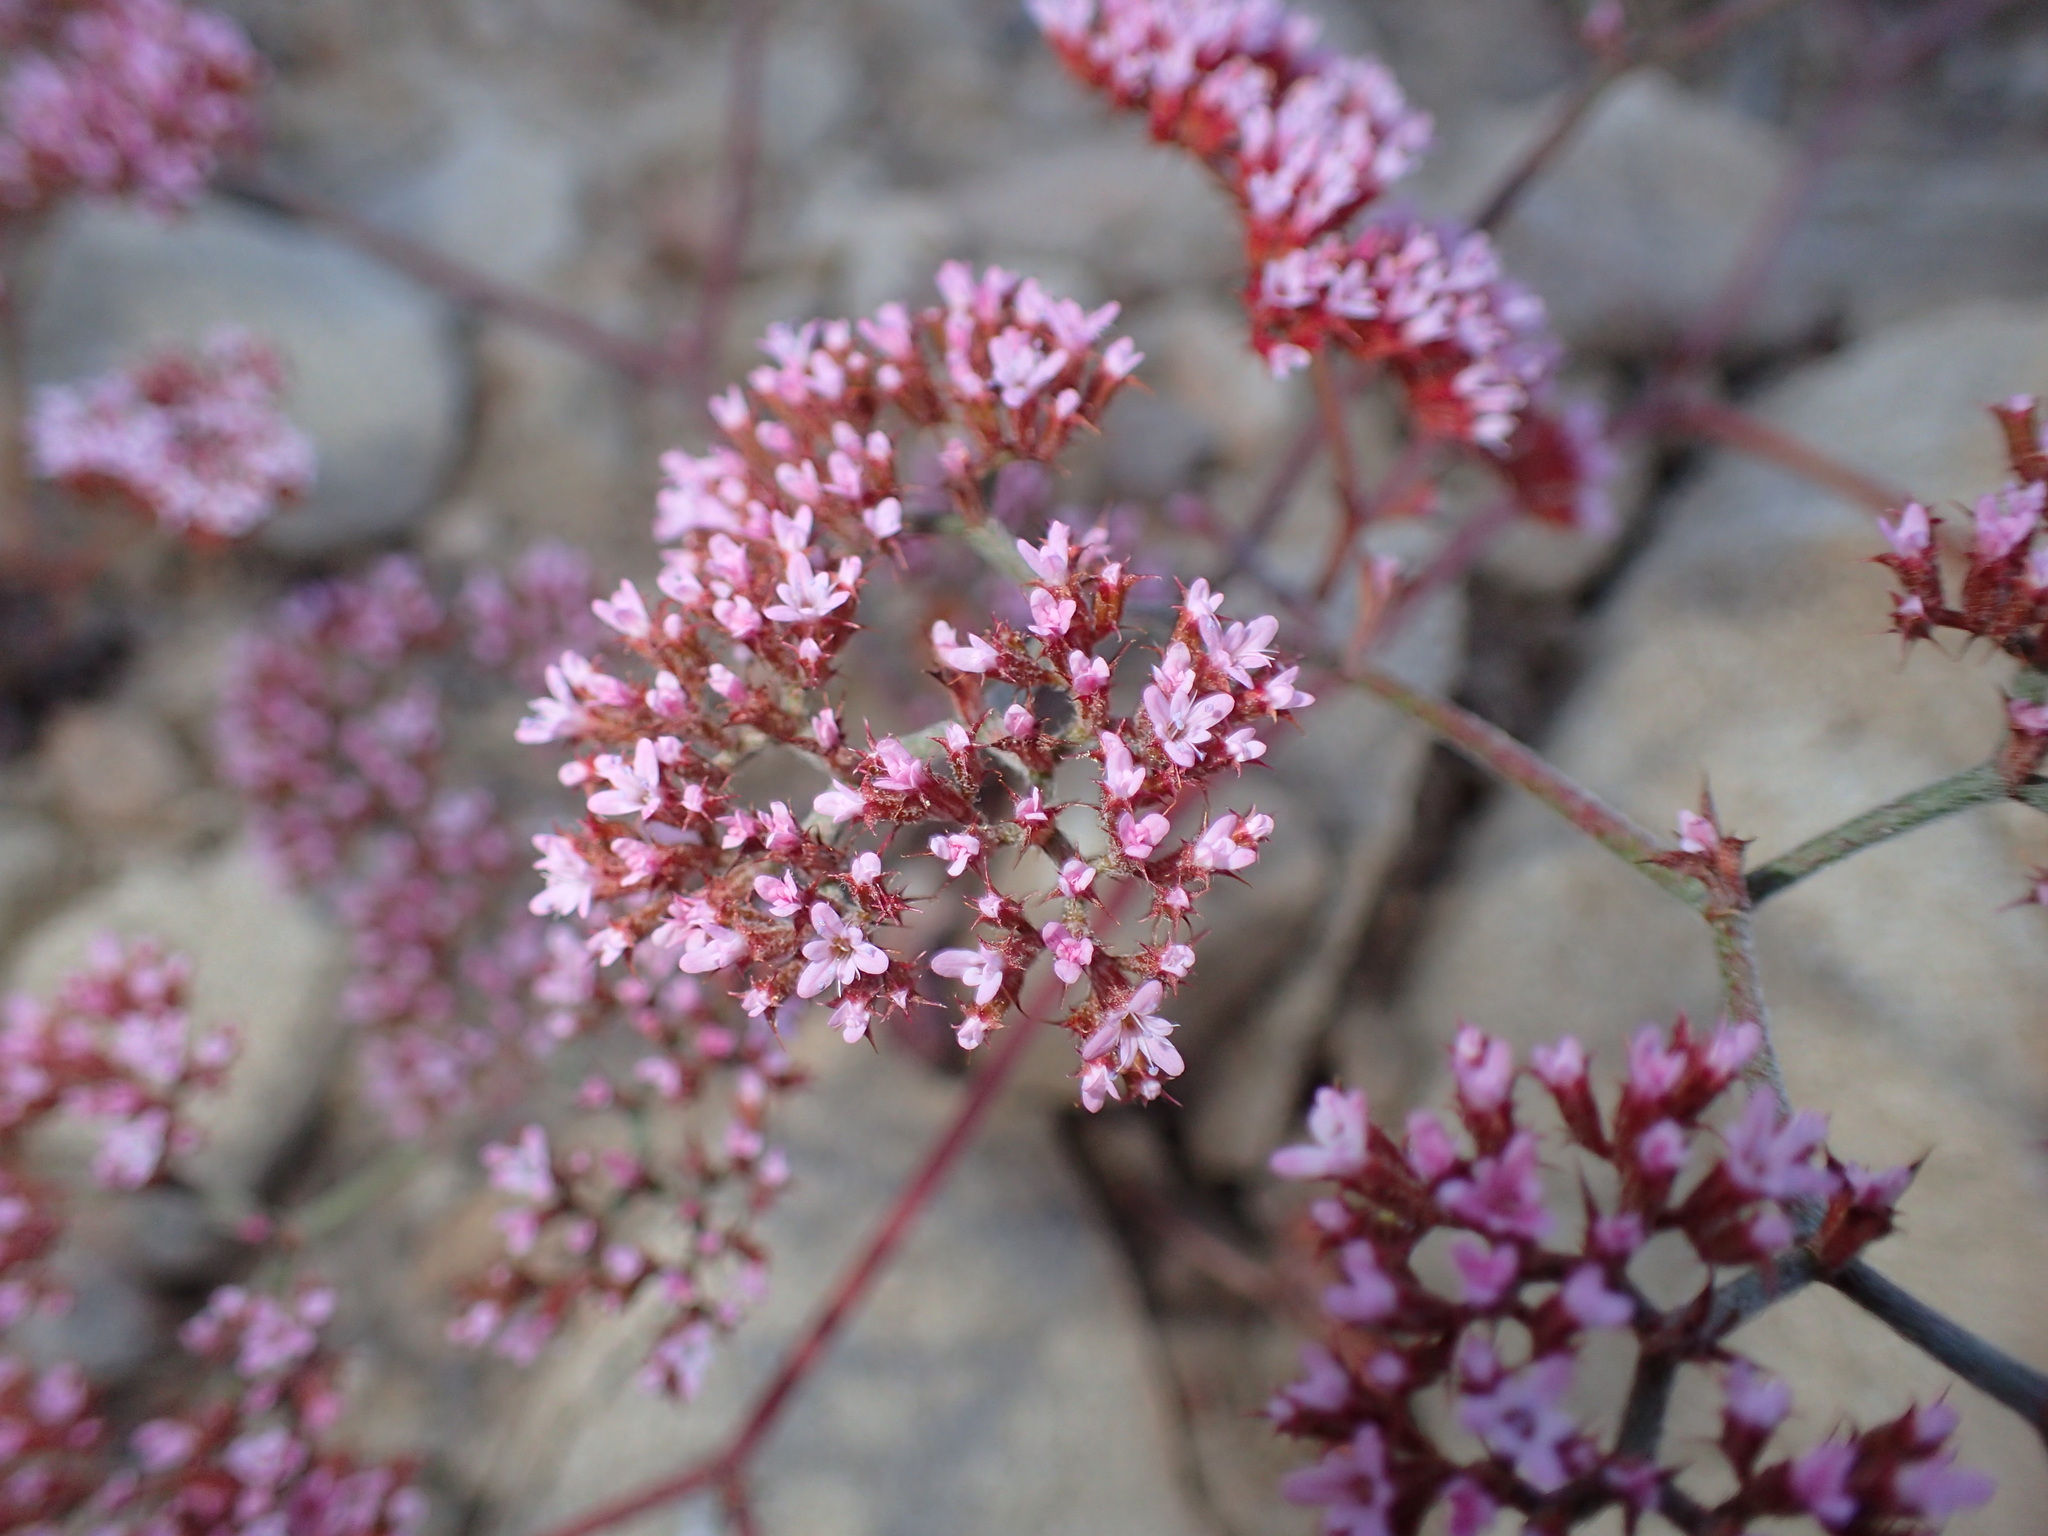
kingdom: Plantae
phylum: Tracheophyta
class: Magnoliopsida
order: Caryophyllales
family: Polygonaceae
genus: Chorizanthe
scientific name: Chorizanthe staticoides
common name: Turkish rugging
